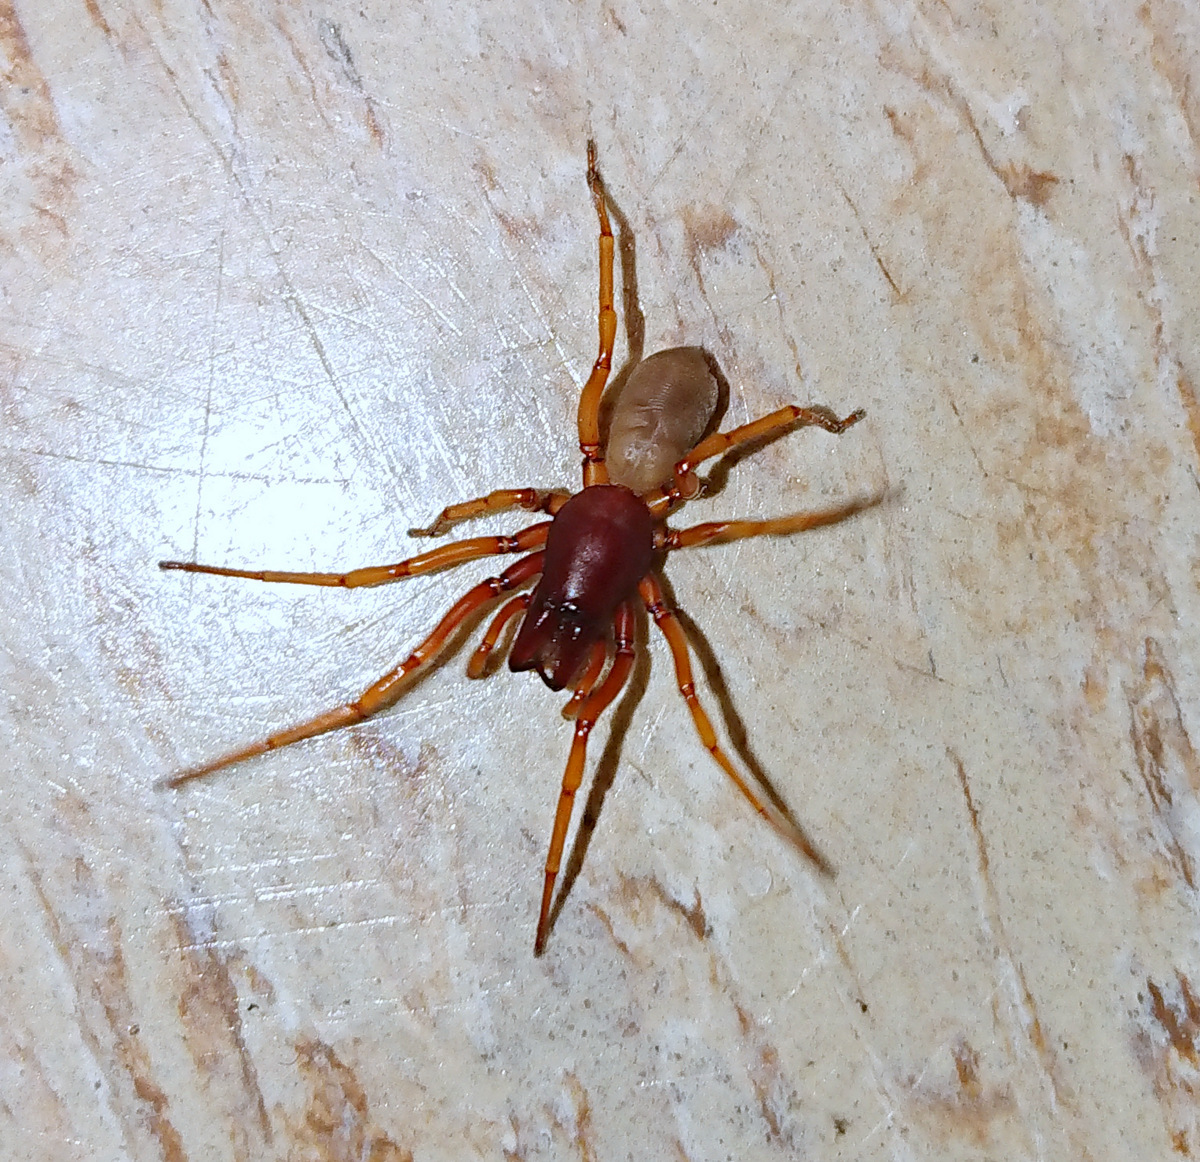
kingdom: Animalia
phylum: Arthropoda
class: Arachnida
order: Araneae
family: Dysderidae
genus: Dysdera
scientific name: Dysdera crocata
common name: Woodlouse spider
